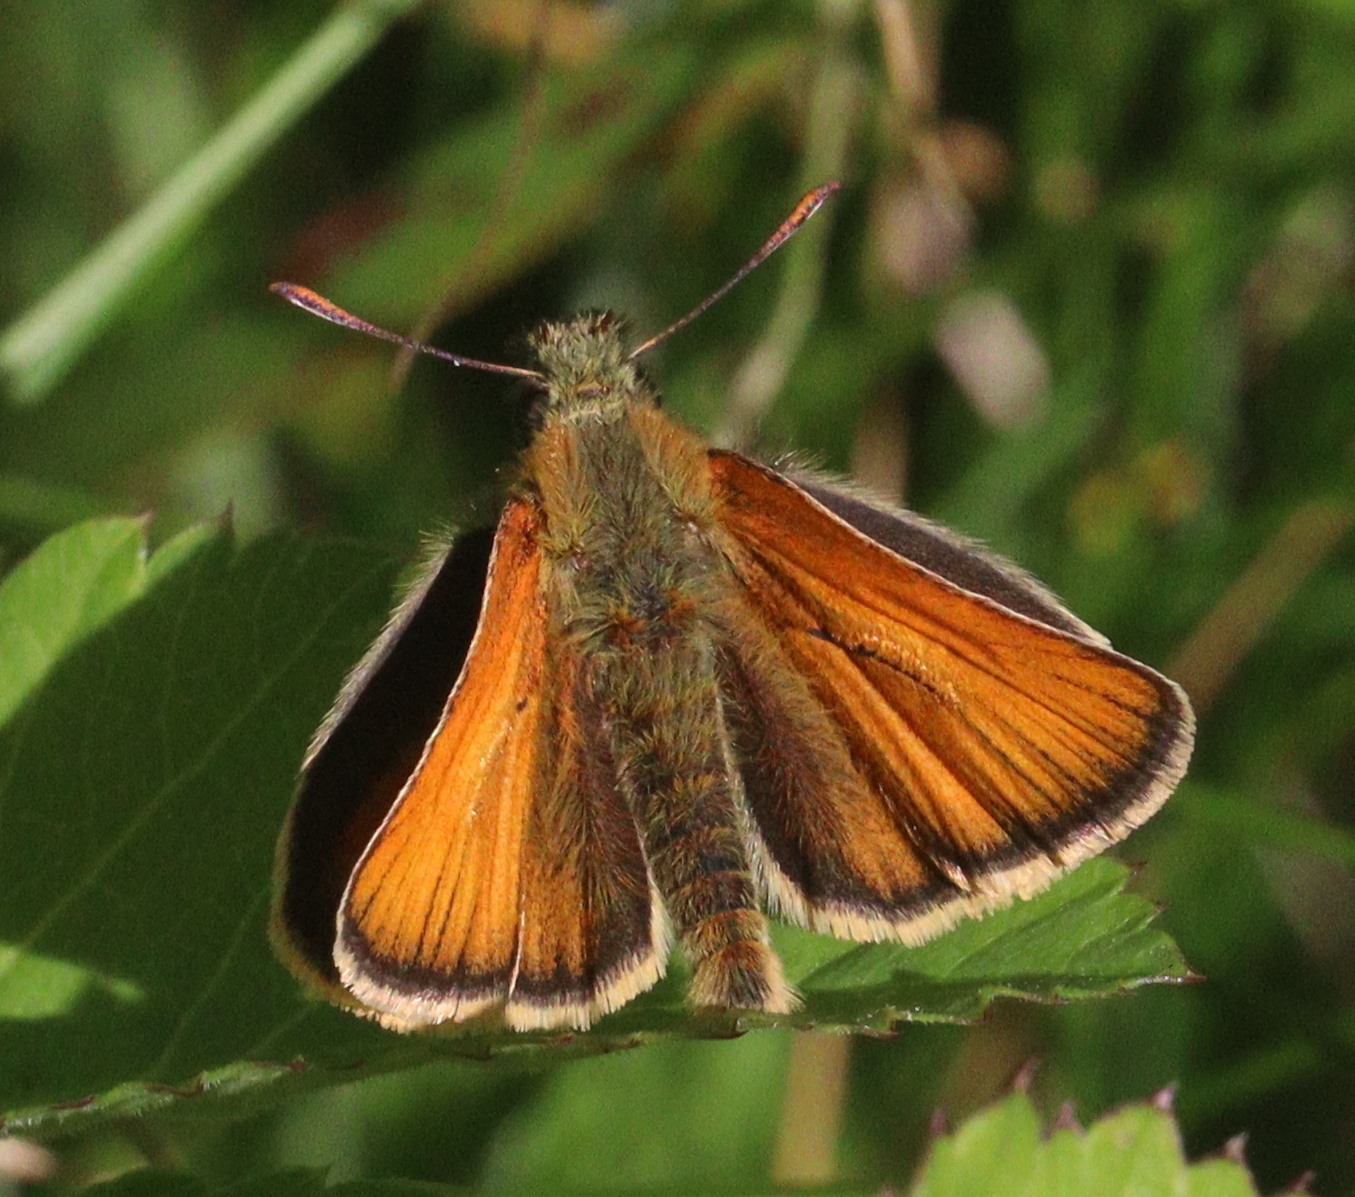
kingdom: Animalia
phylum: Arthropoda
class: Insecta
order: Lepidoptera
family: Hesperiidae
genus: Thymelicus
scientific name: Thymelicus sylvestris
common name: Small skipper
